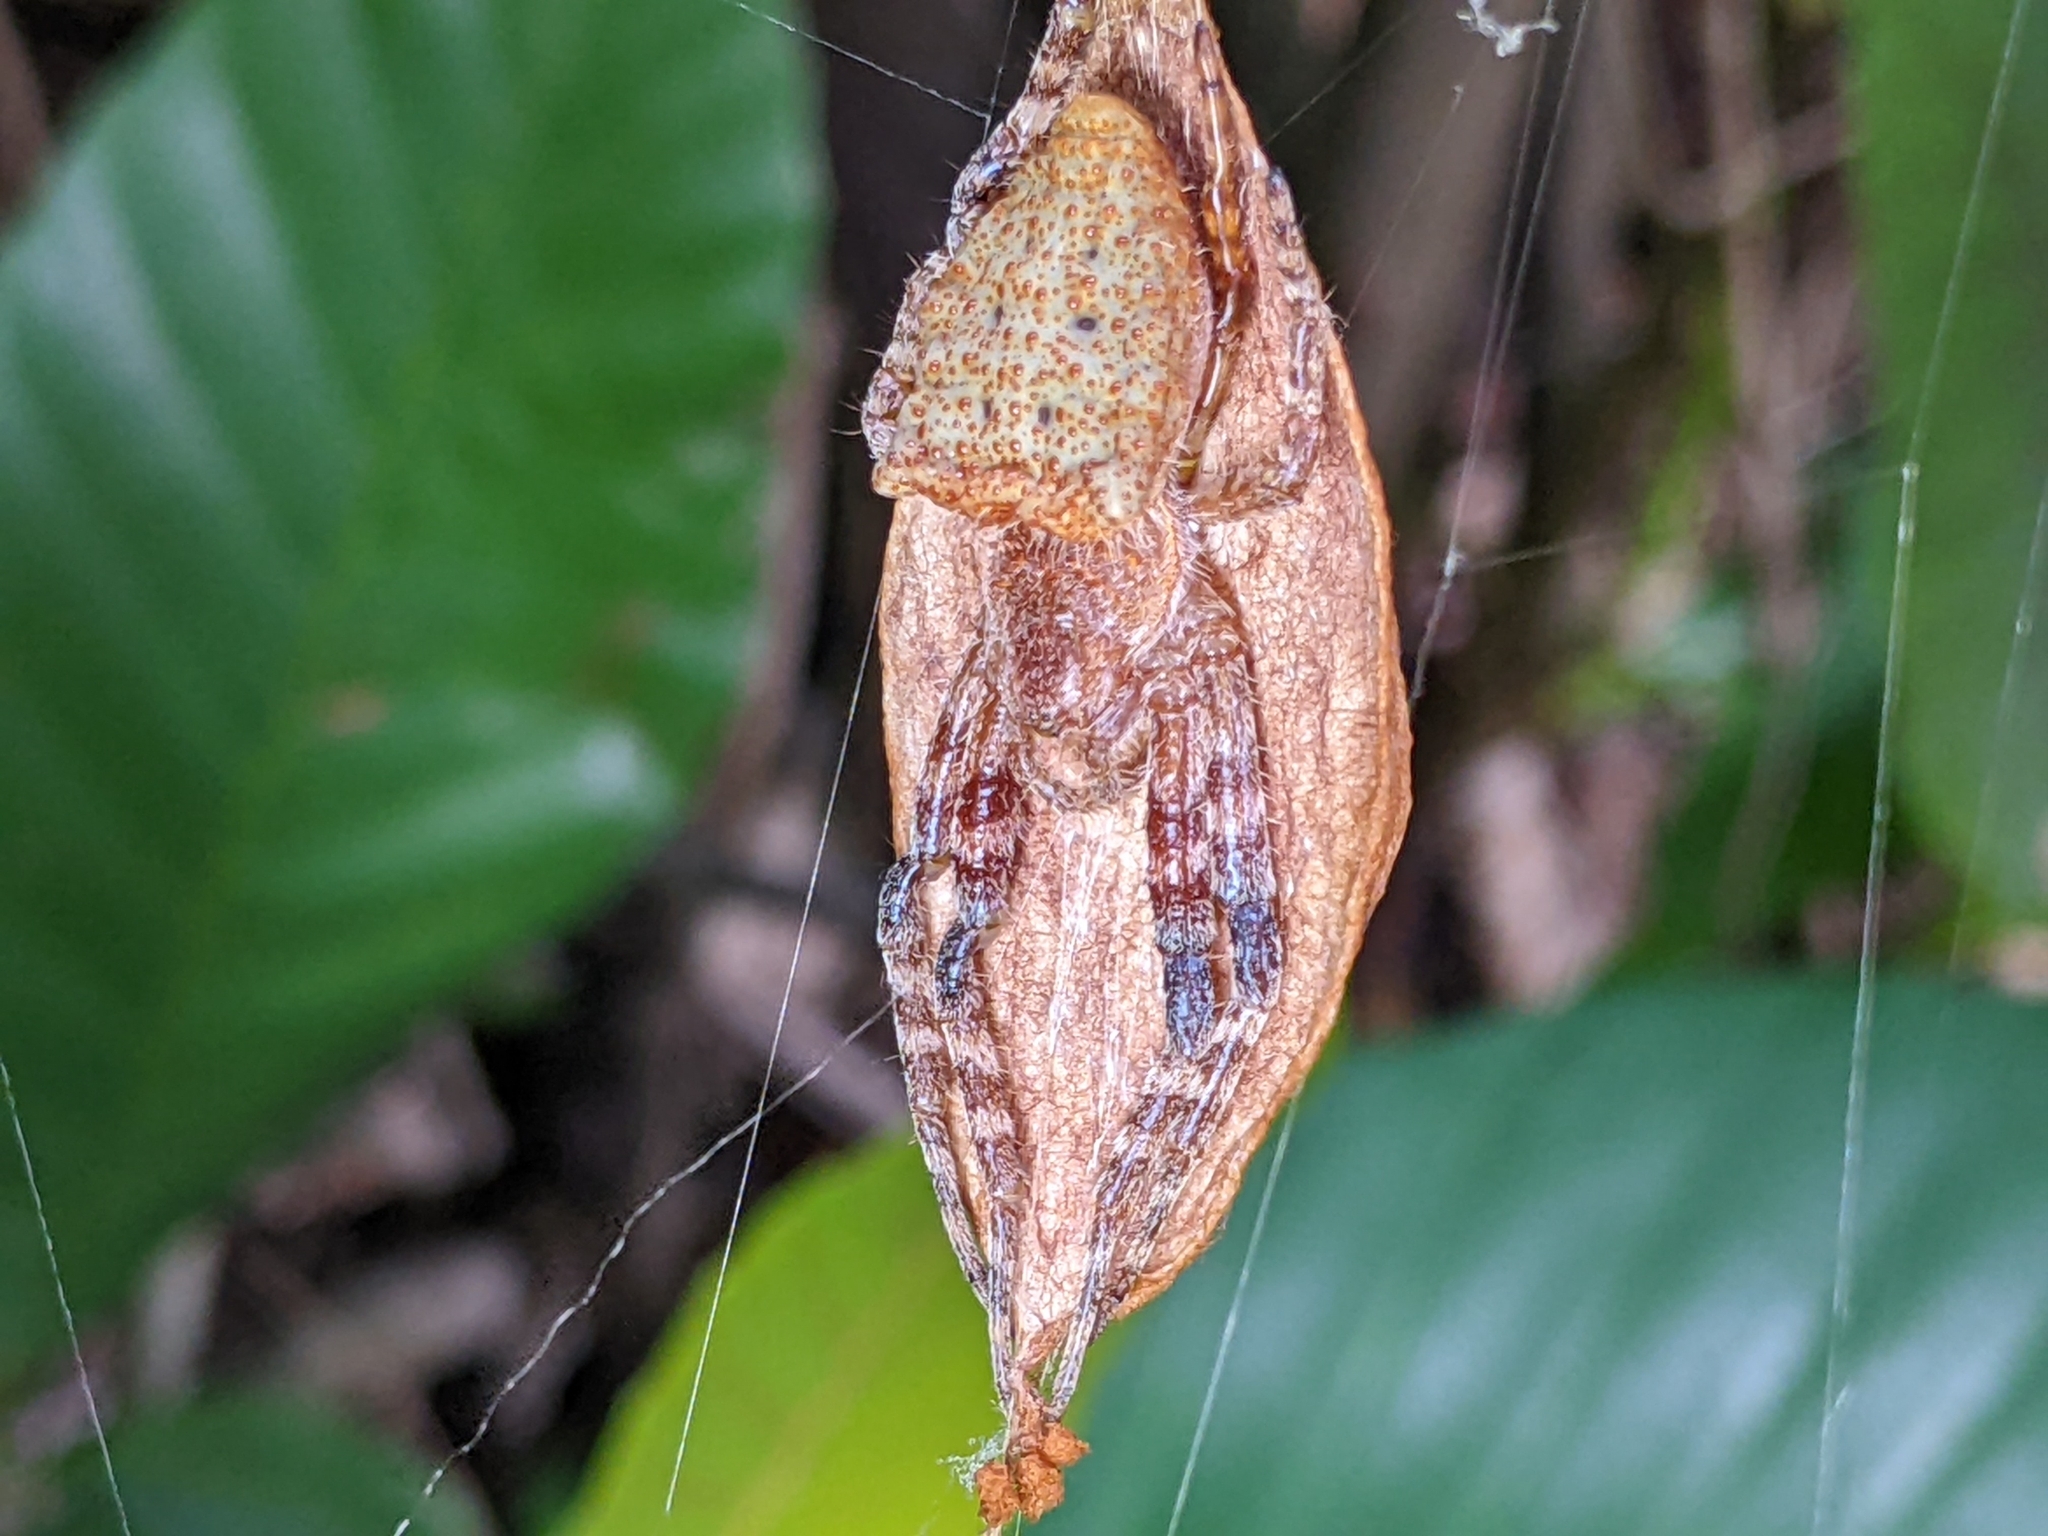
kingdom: Animalia
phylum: Arthropoda
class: Arachnida
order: Araneae
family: Araneidae
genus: Cyrtophora
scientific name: Cyrtophora unicolor
